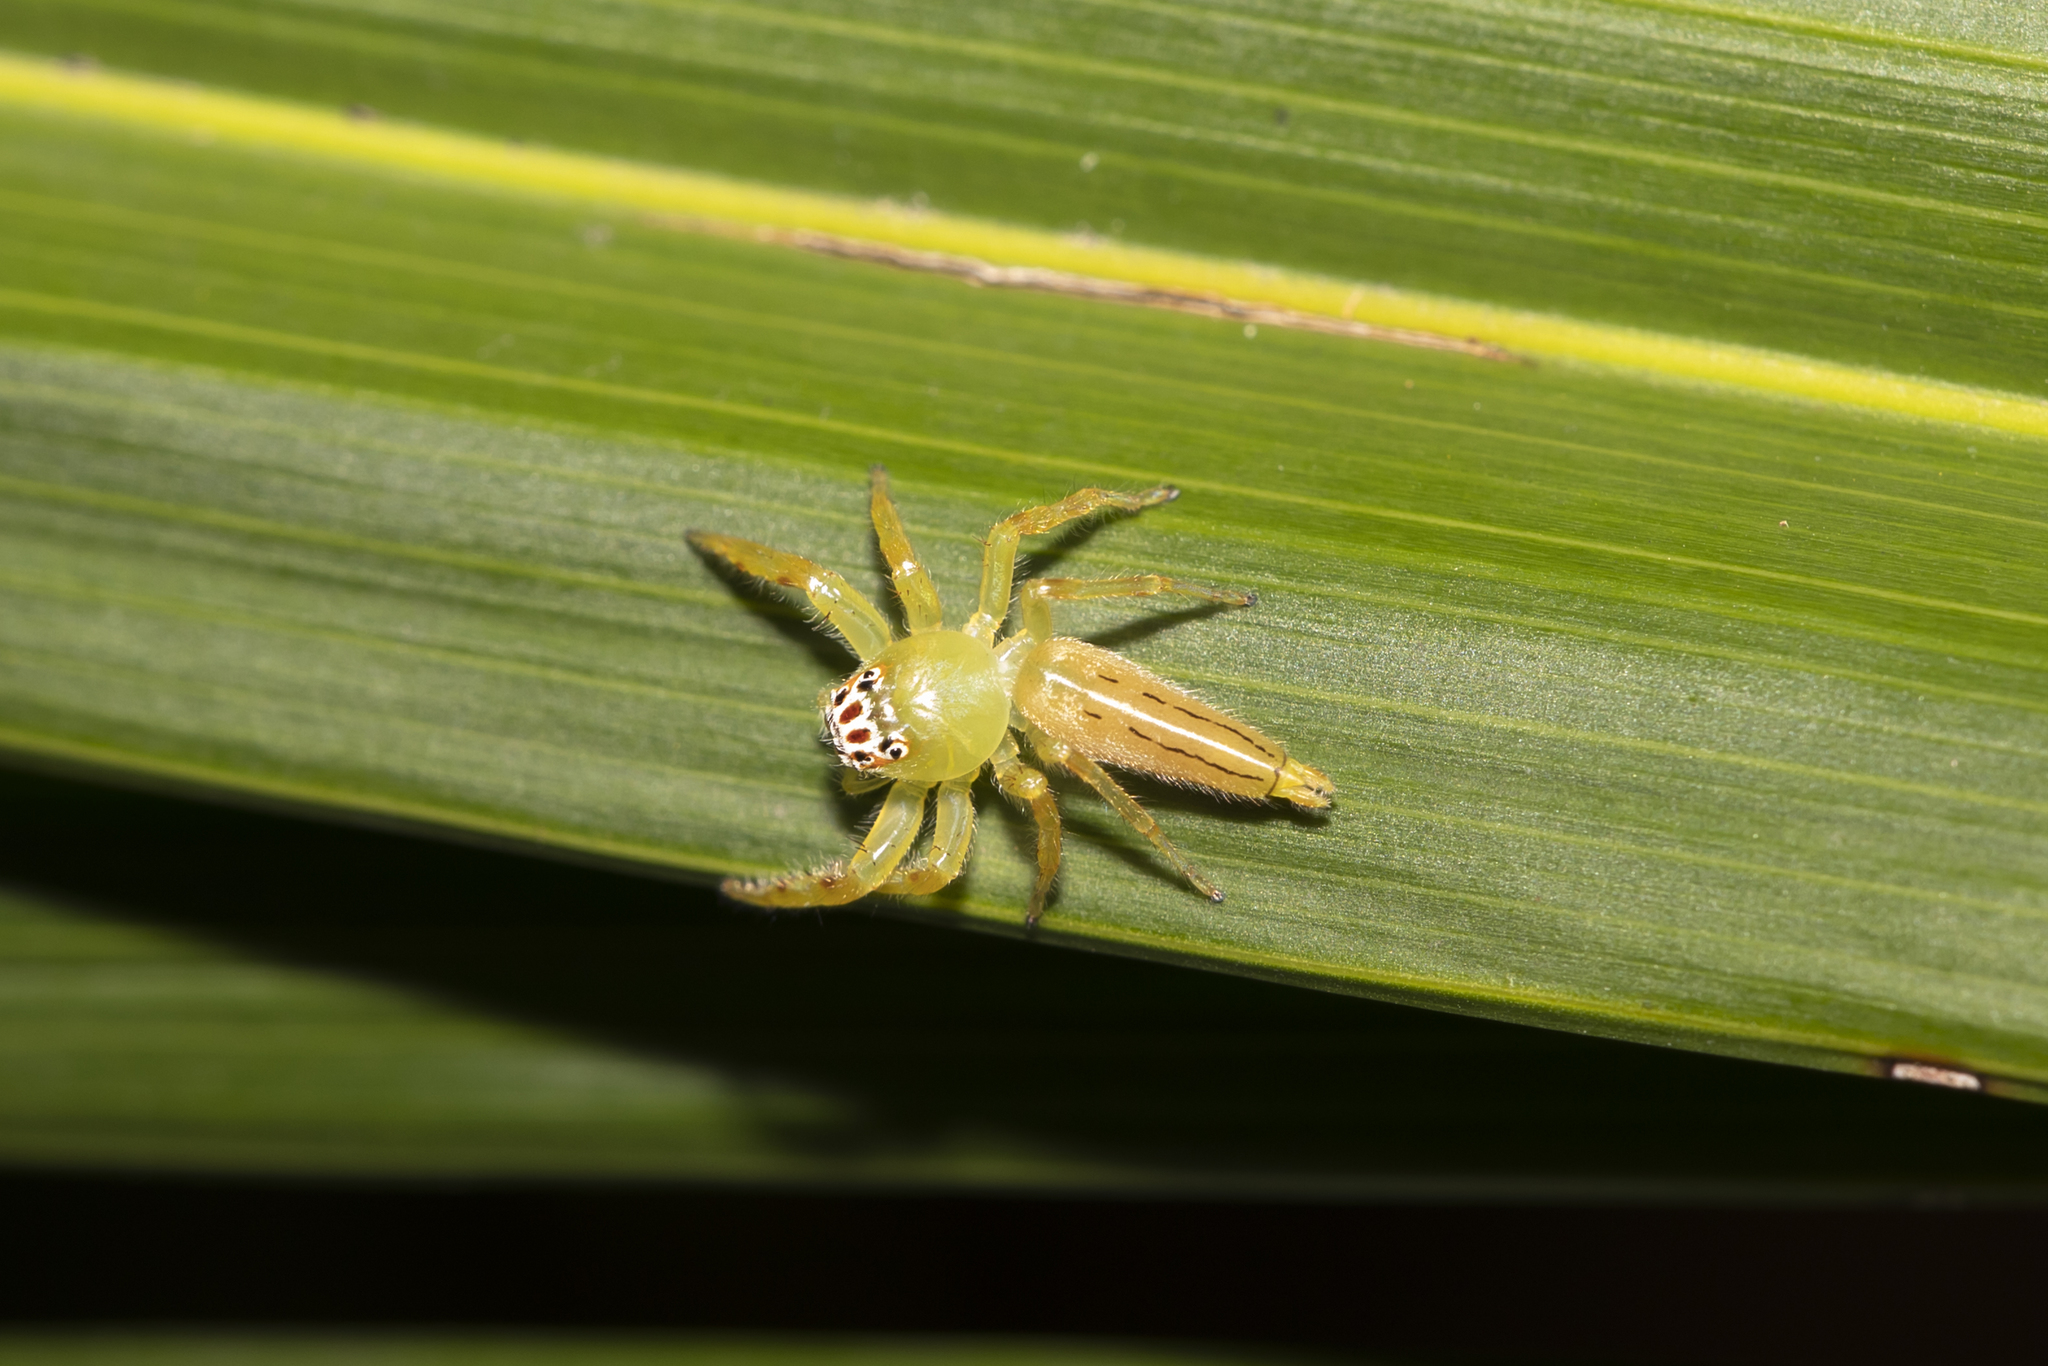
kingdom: Animalia
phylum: Arthropoda
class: Arachnida
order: Araneae
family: Salticidae
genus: Mopsus
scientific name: Mopsus mormon
